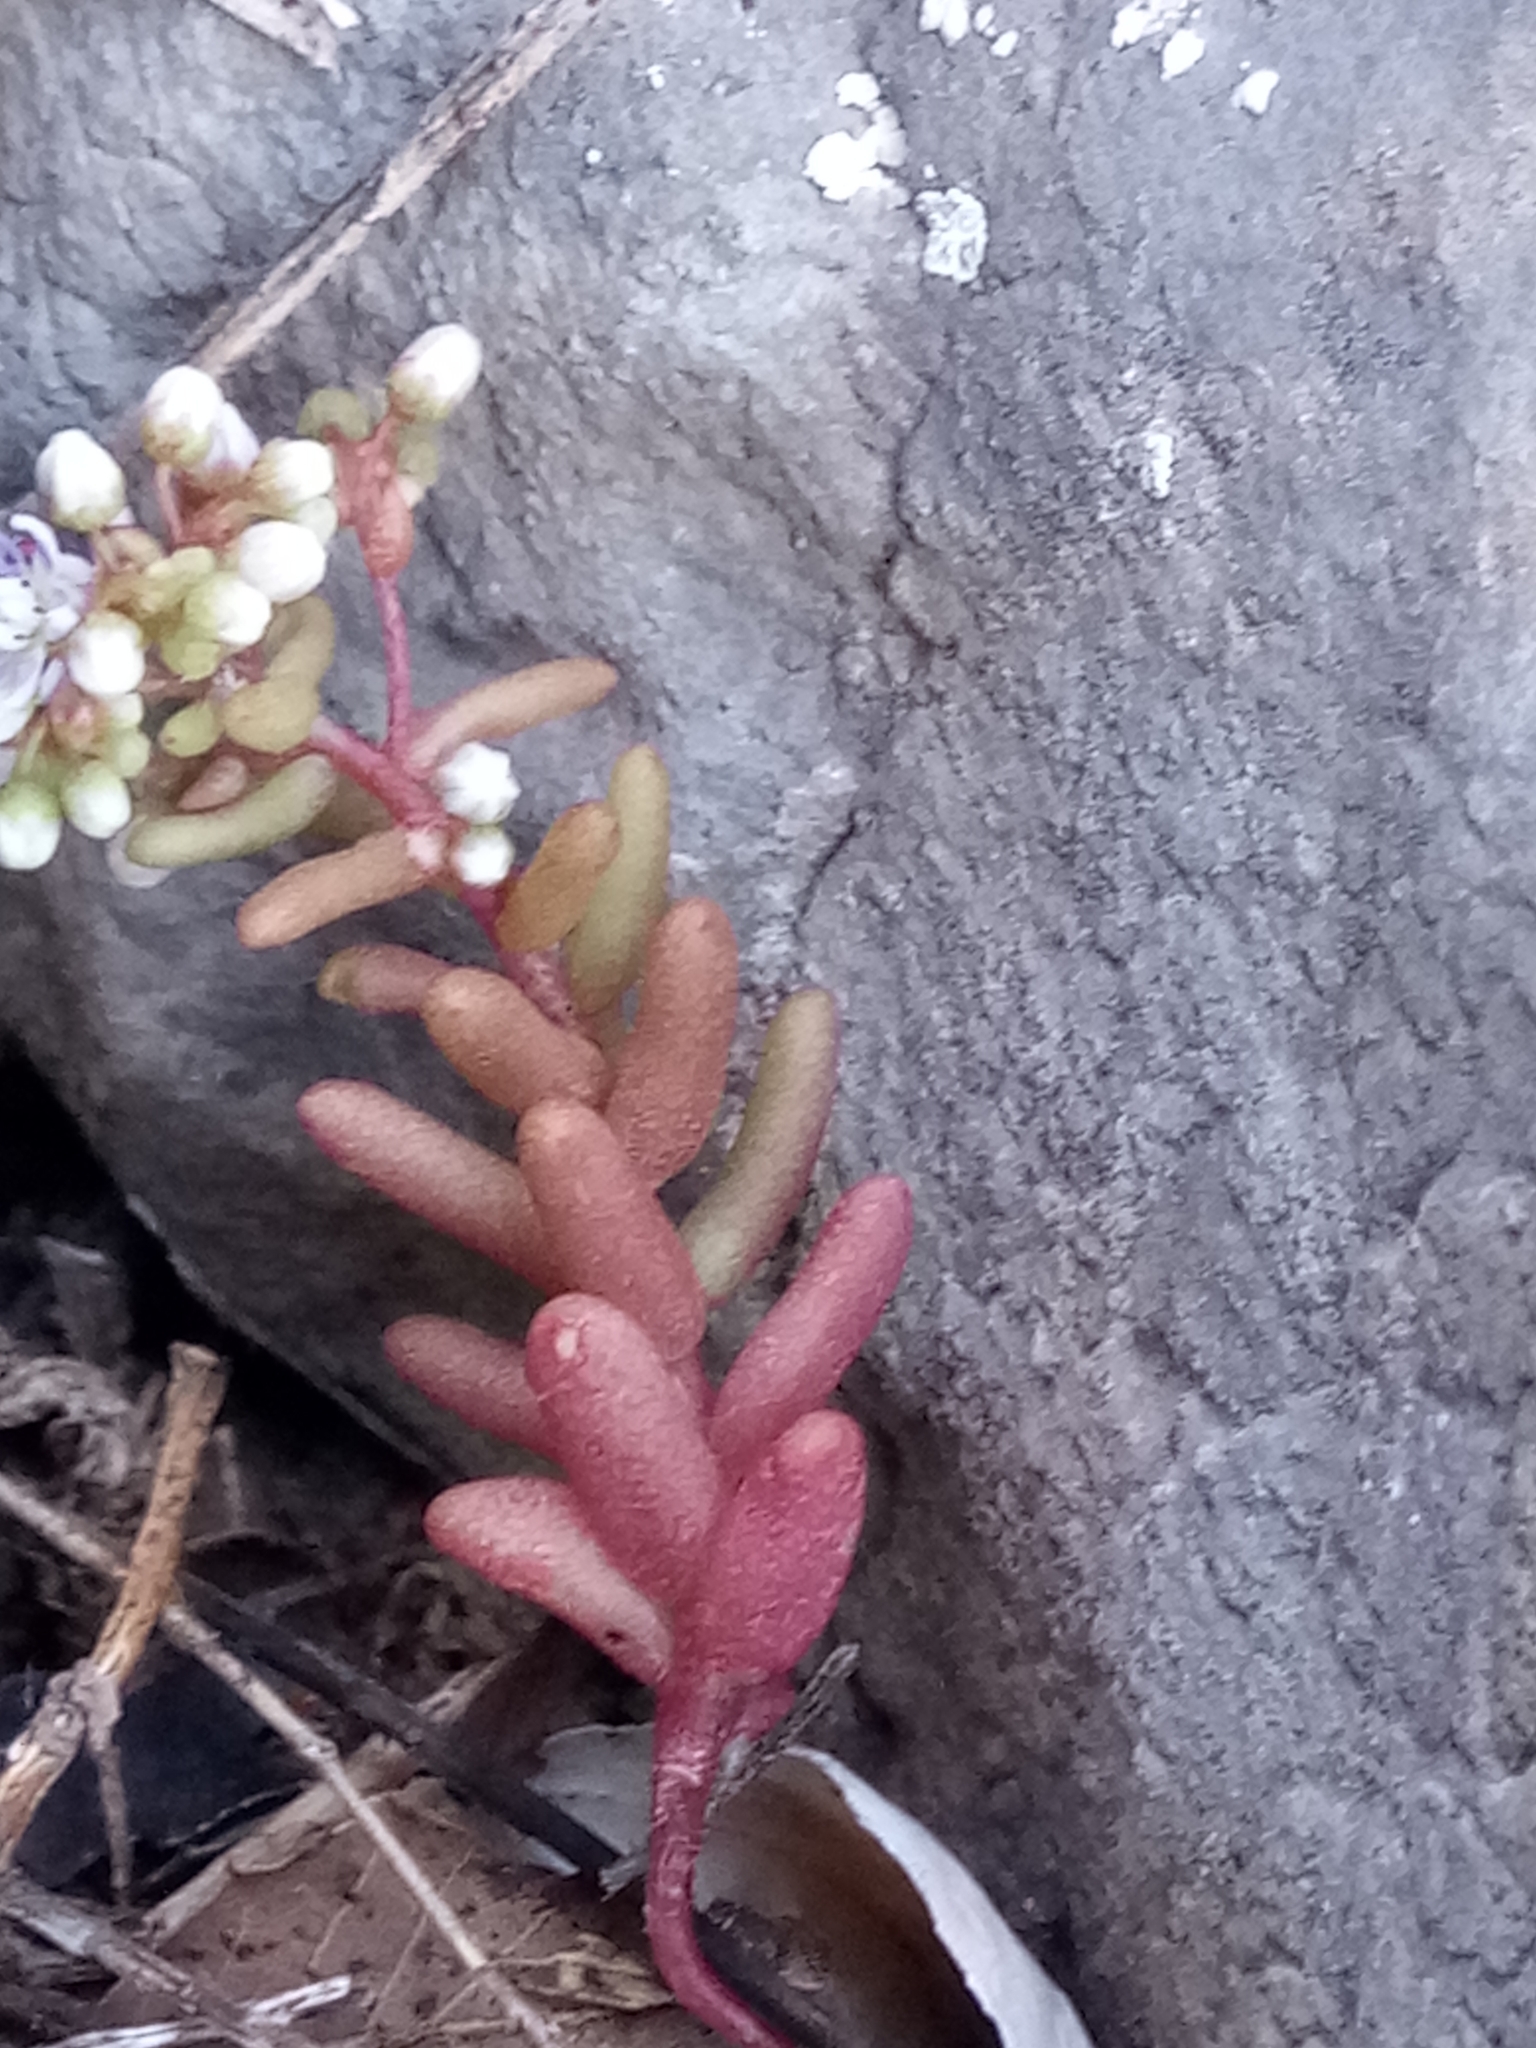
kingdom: Plantae
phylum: Tracheophyta
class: Magnoliopsida
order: Saxifragales
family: Crassulaceae
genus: Sedum
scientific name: Sedum caeruleum
